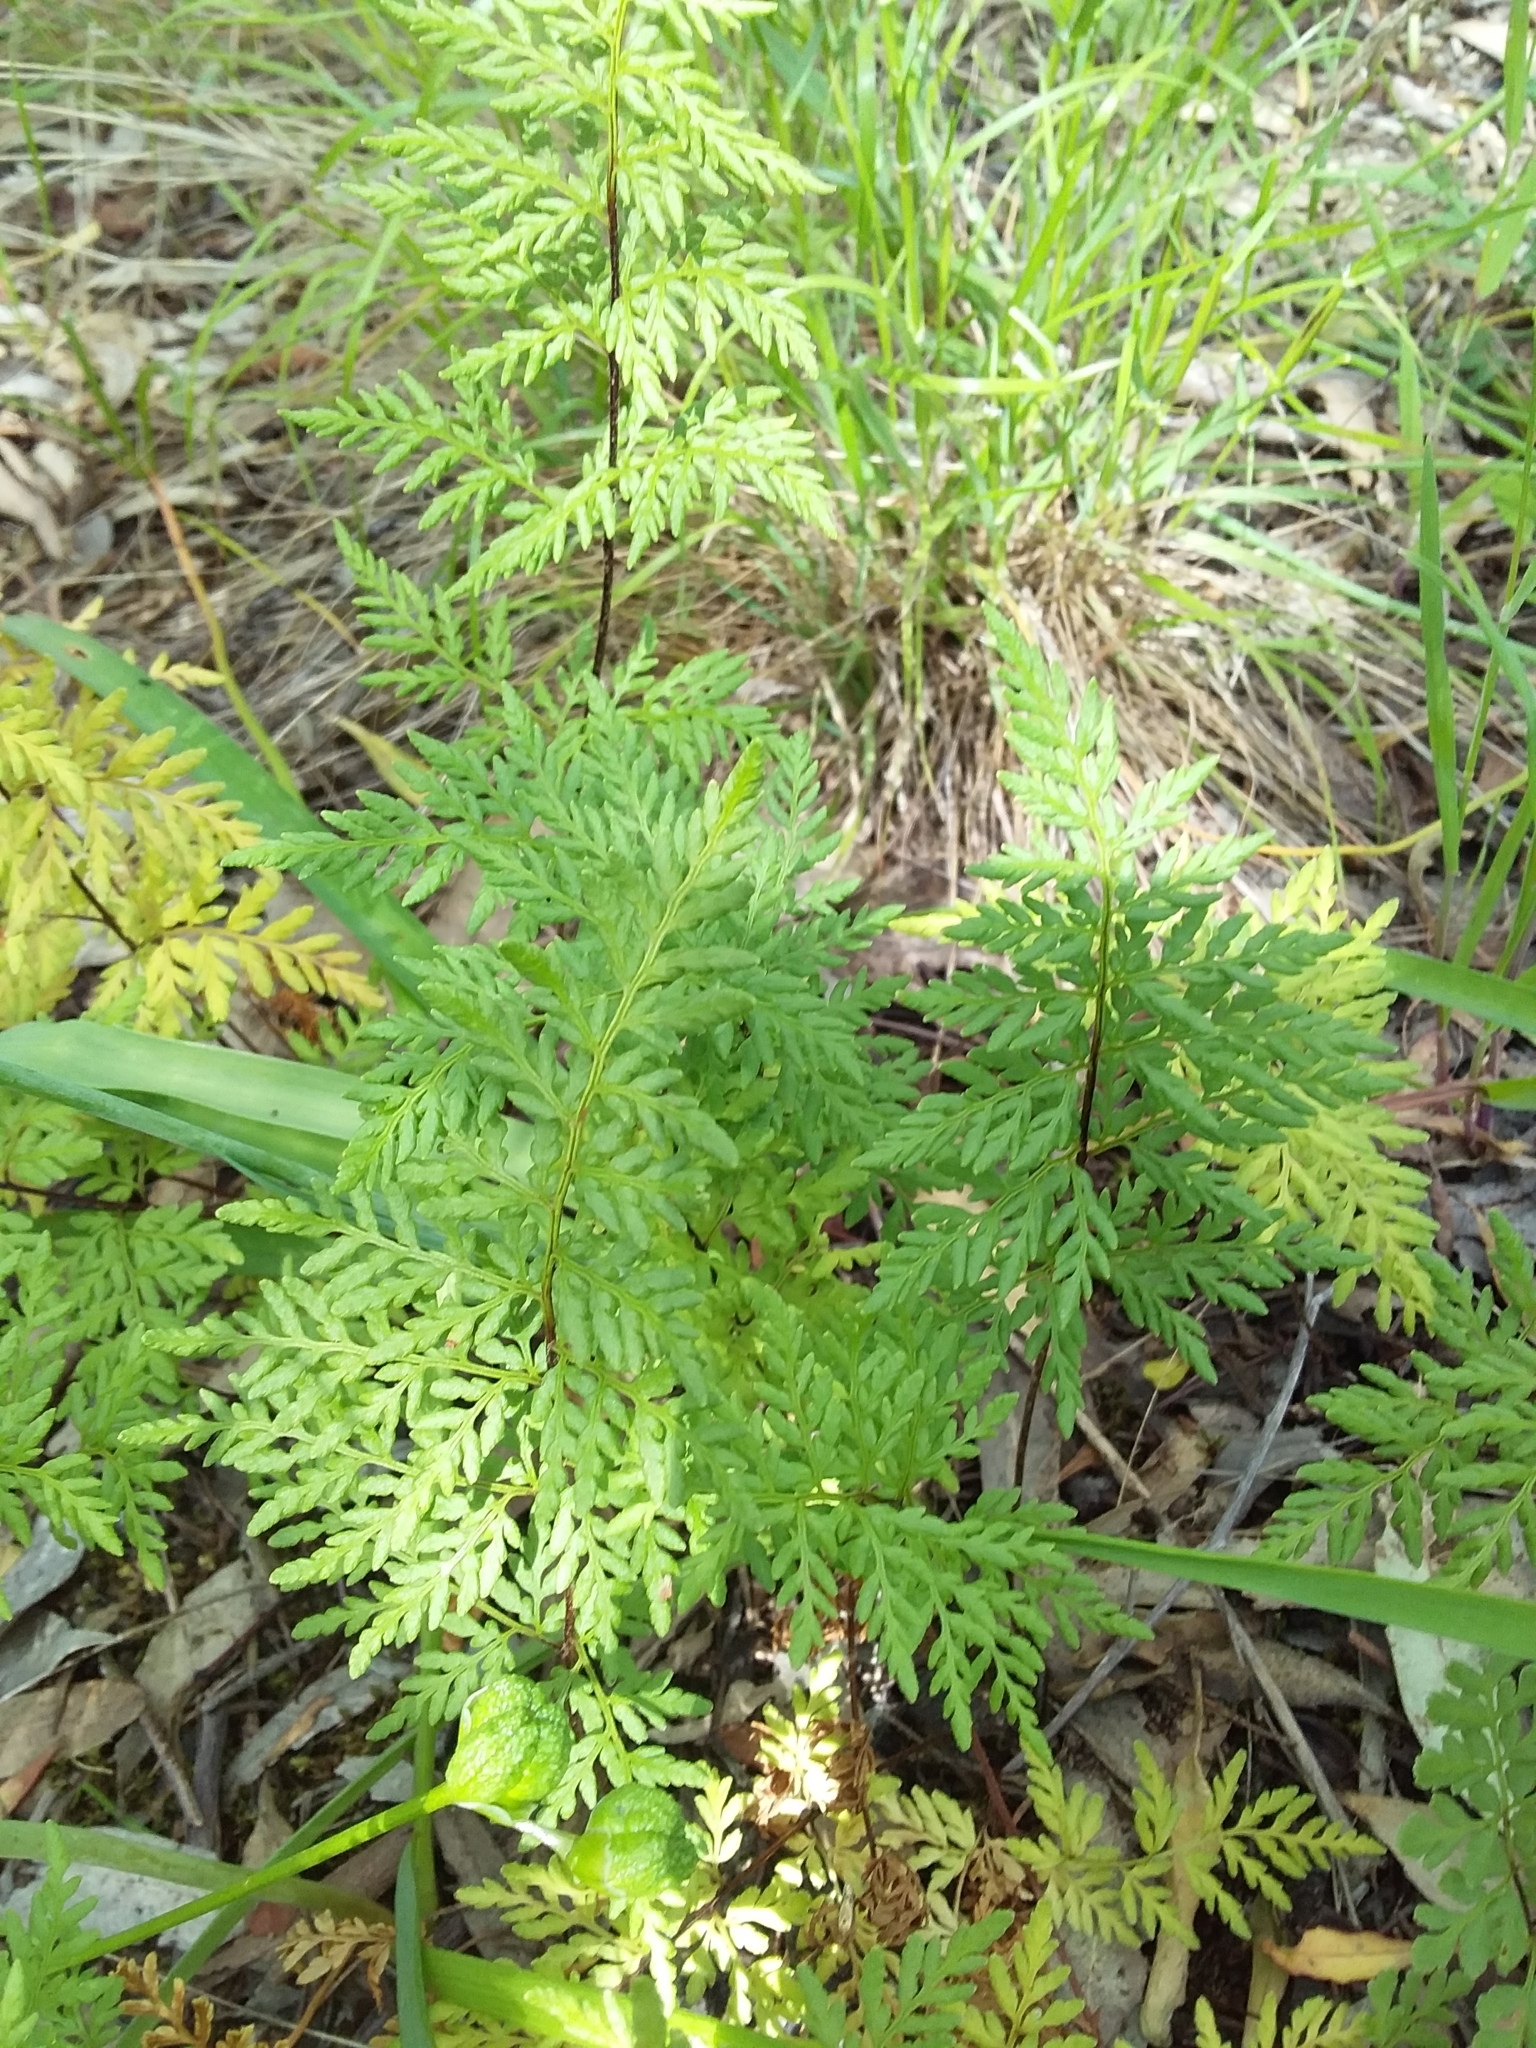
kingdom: Plantae
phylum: Tracheophyta
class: Polypodiopsida
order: Polypodiales
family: Pteridaceae
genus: Cheilanthes
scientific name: Cheilanthes austrotenuifolia
